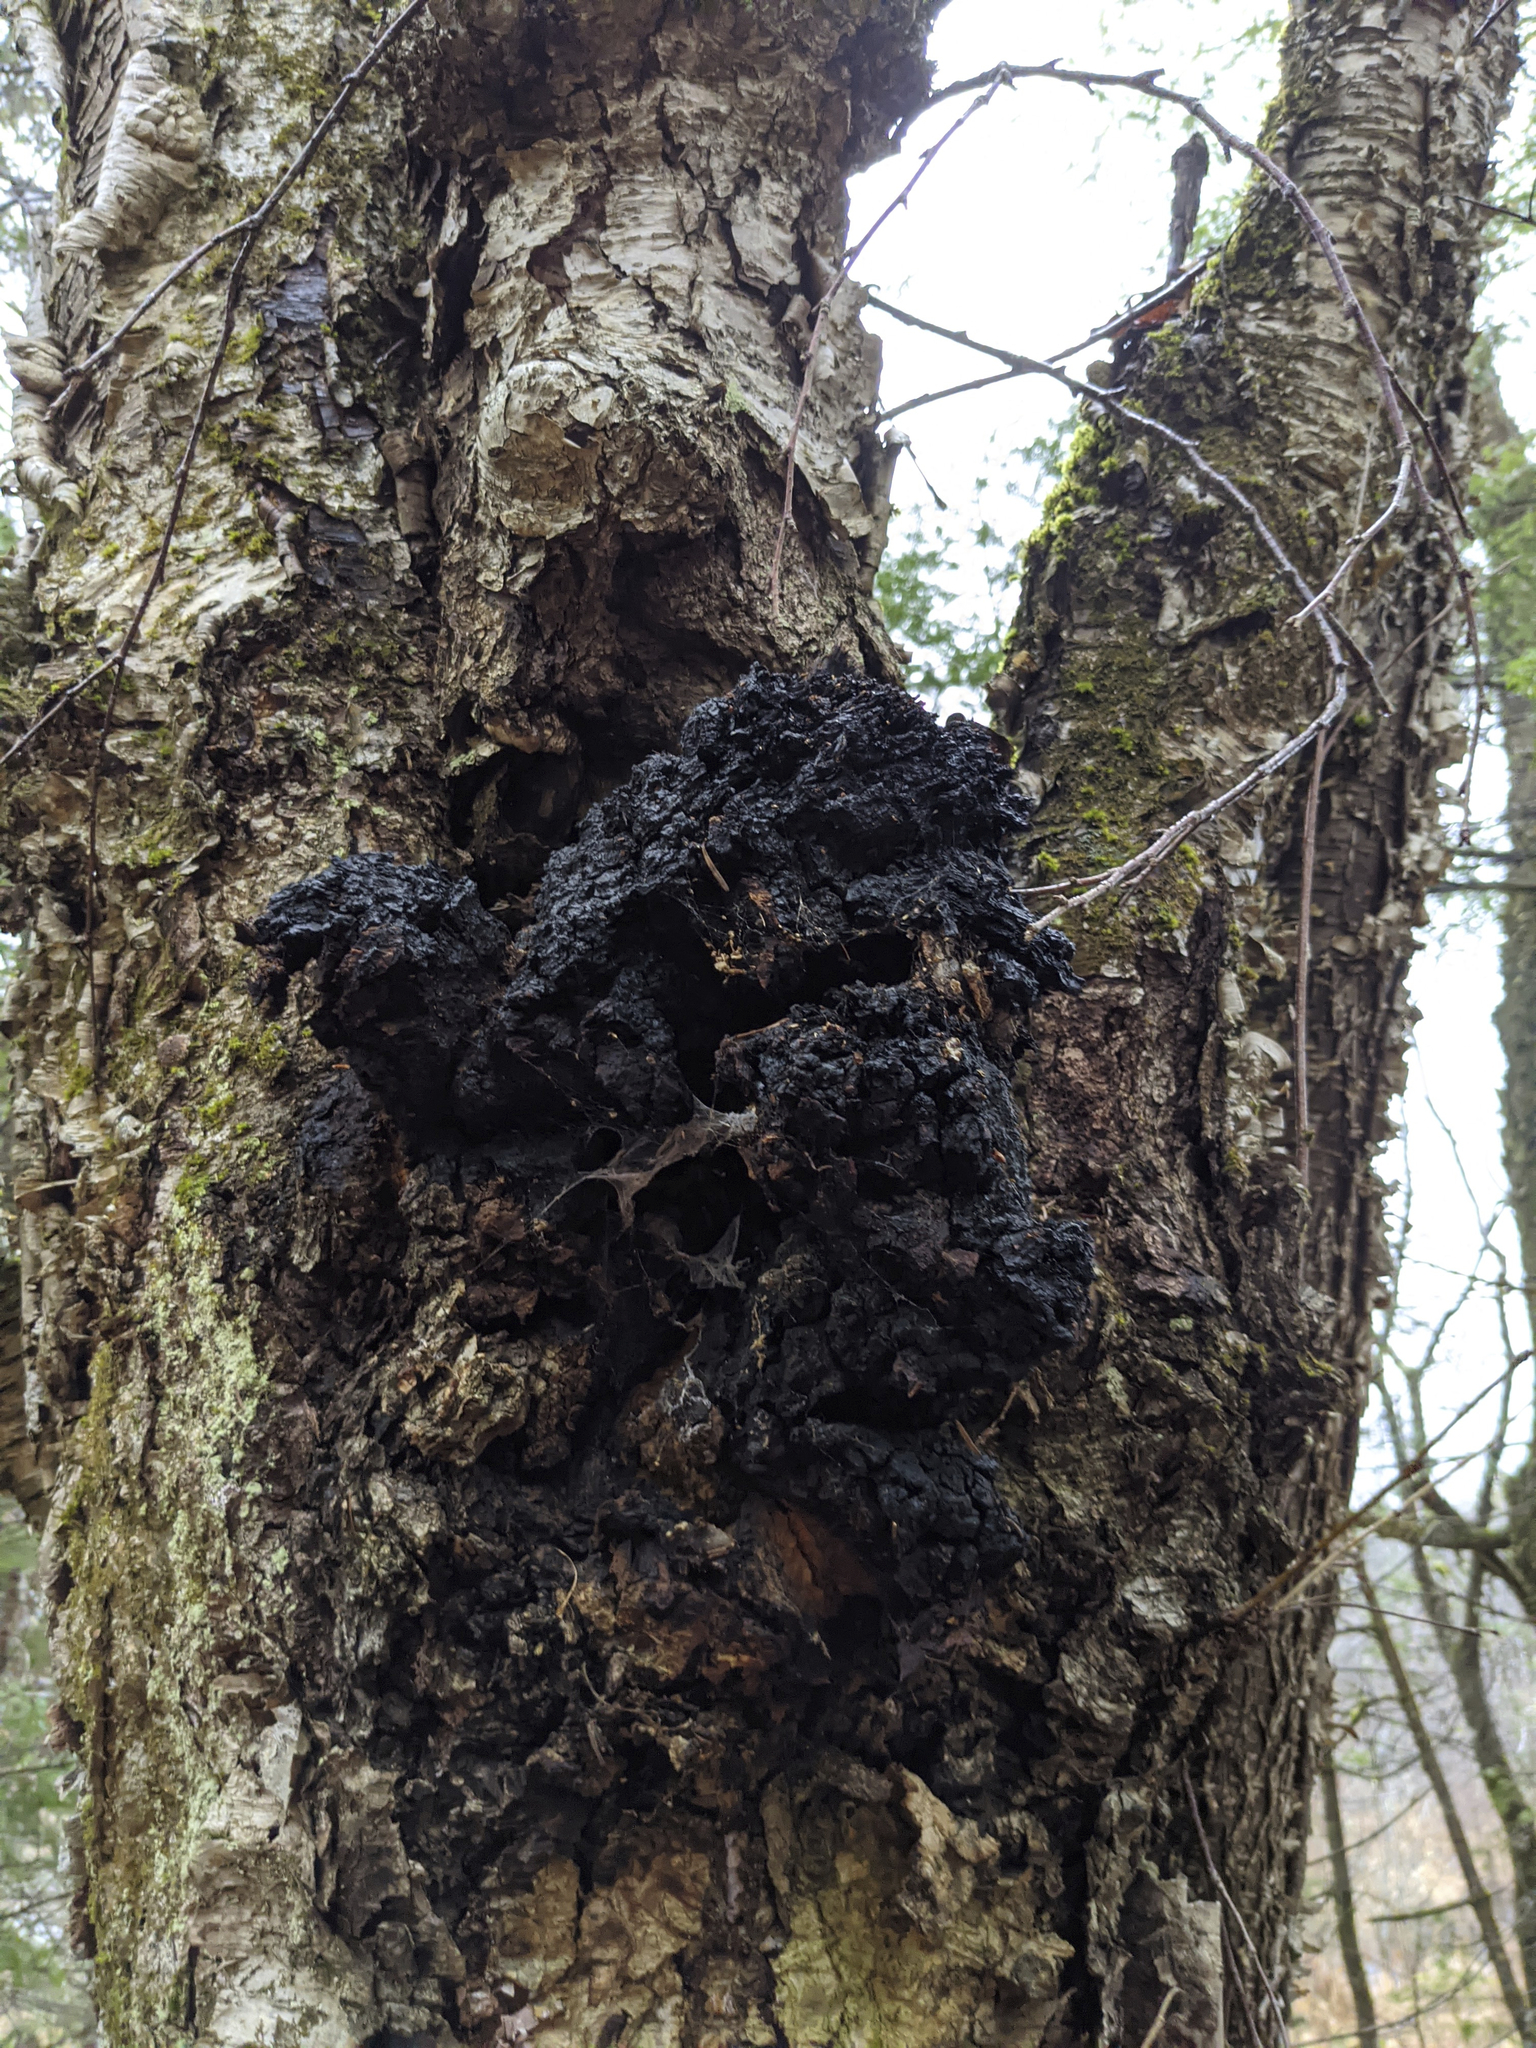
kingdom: Fungi
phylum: Basidiomycota
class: Agaricomycetes
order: Hymenochaetales
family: Hymenochaetaceae
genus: Inonotus
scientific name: Inonotus obliquus
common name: Chaga
